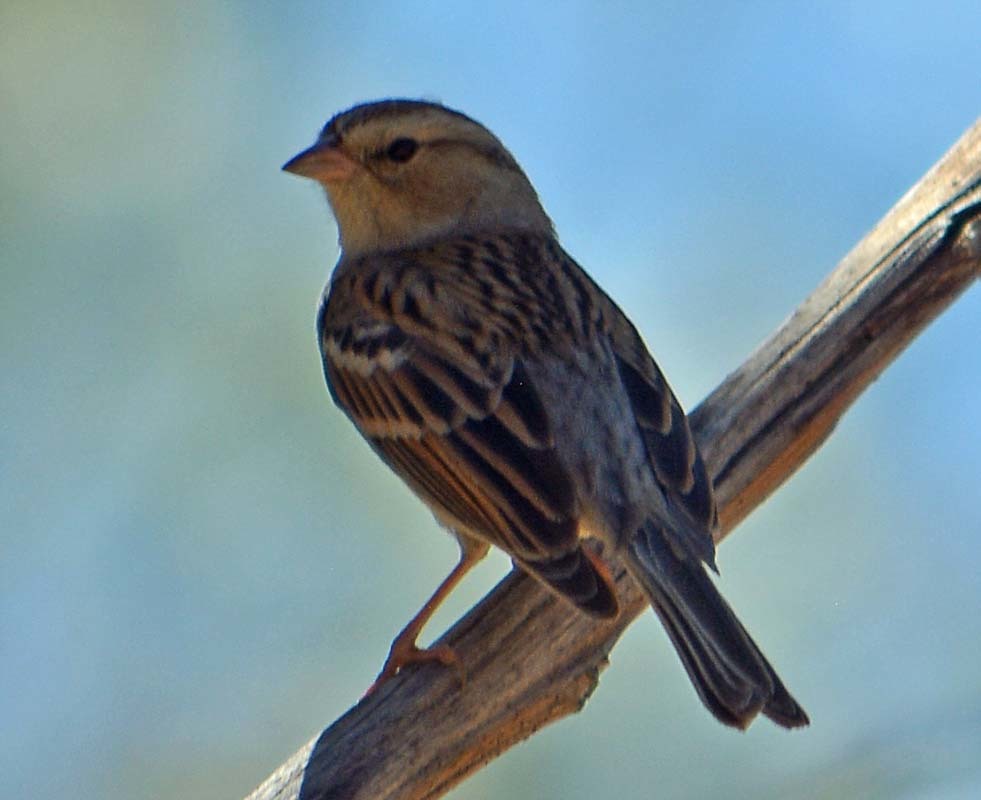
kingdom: Animalia
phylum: Chordata
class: Aves
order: Passeriformes
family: Passerellidae
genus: Spizella
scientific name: Spizella passerina
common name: Chipping sparrow
